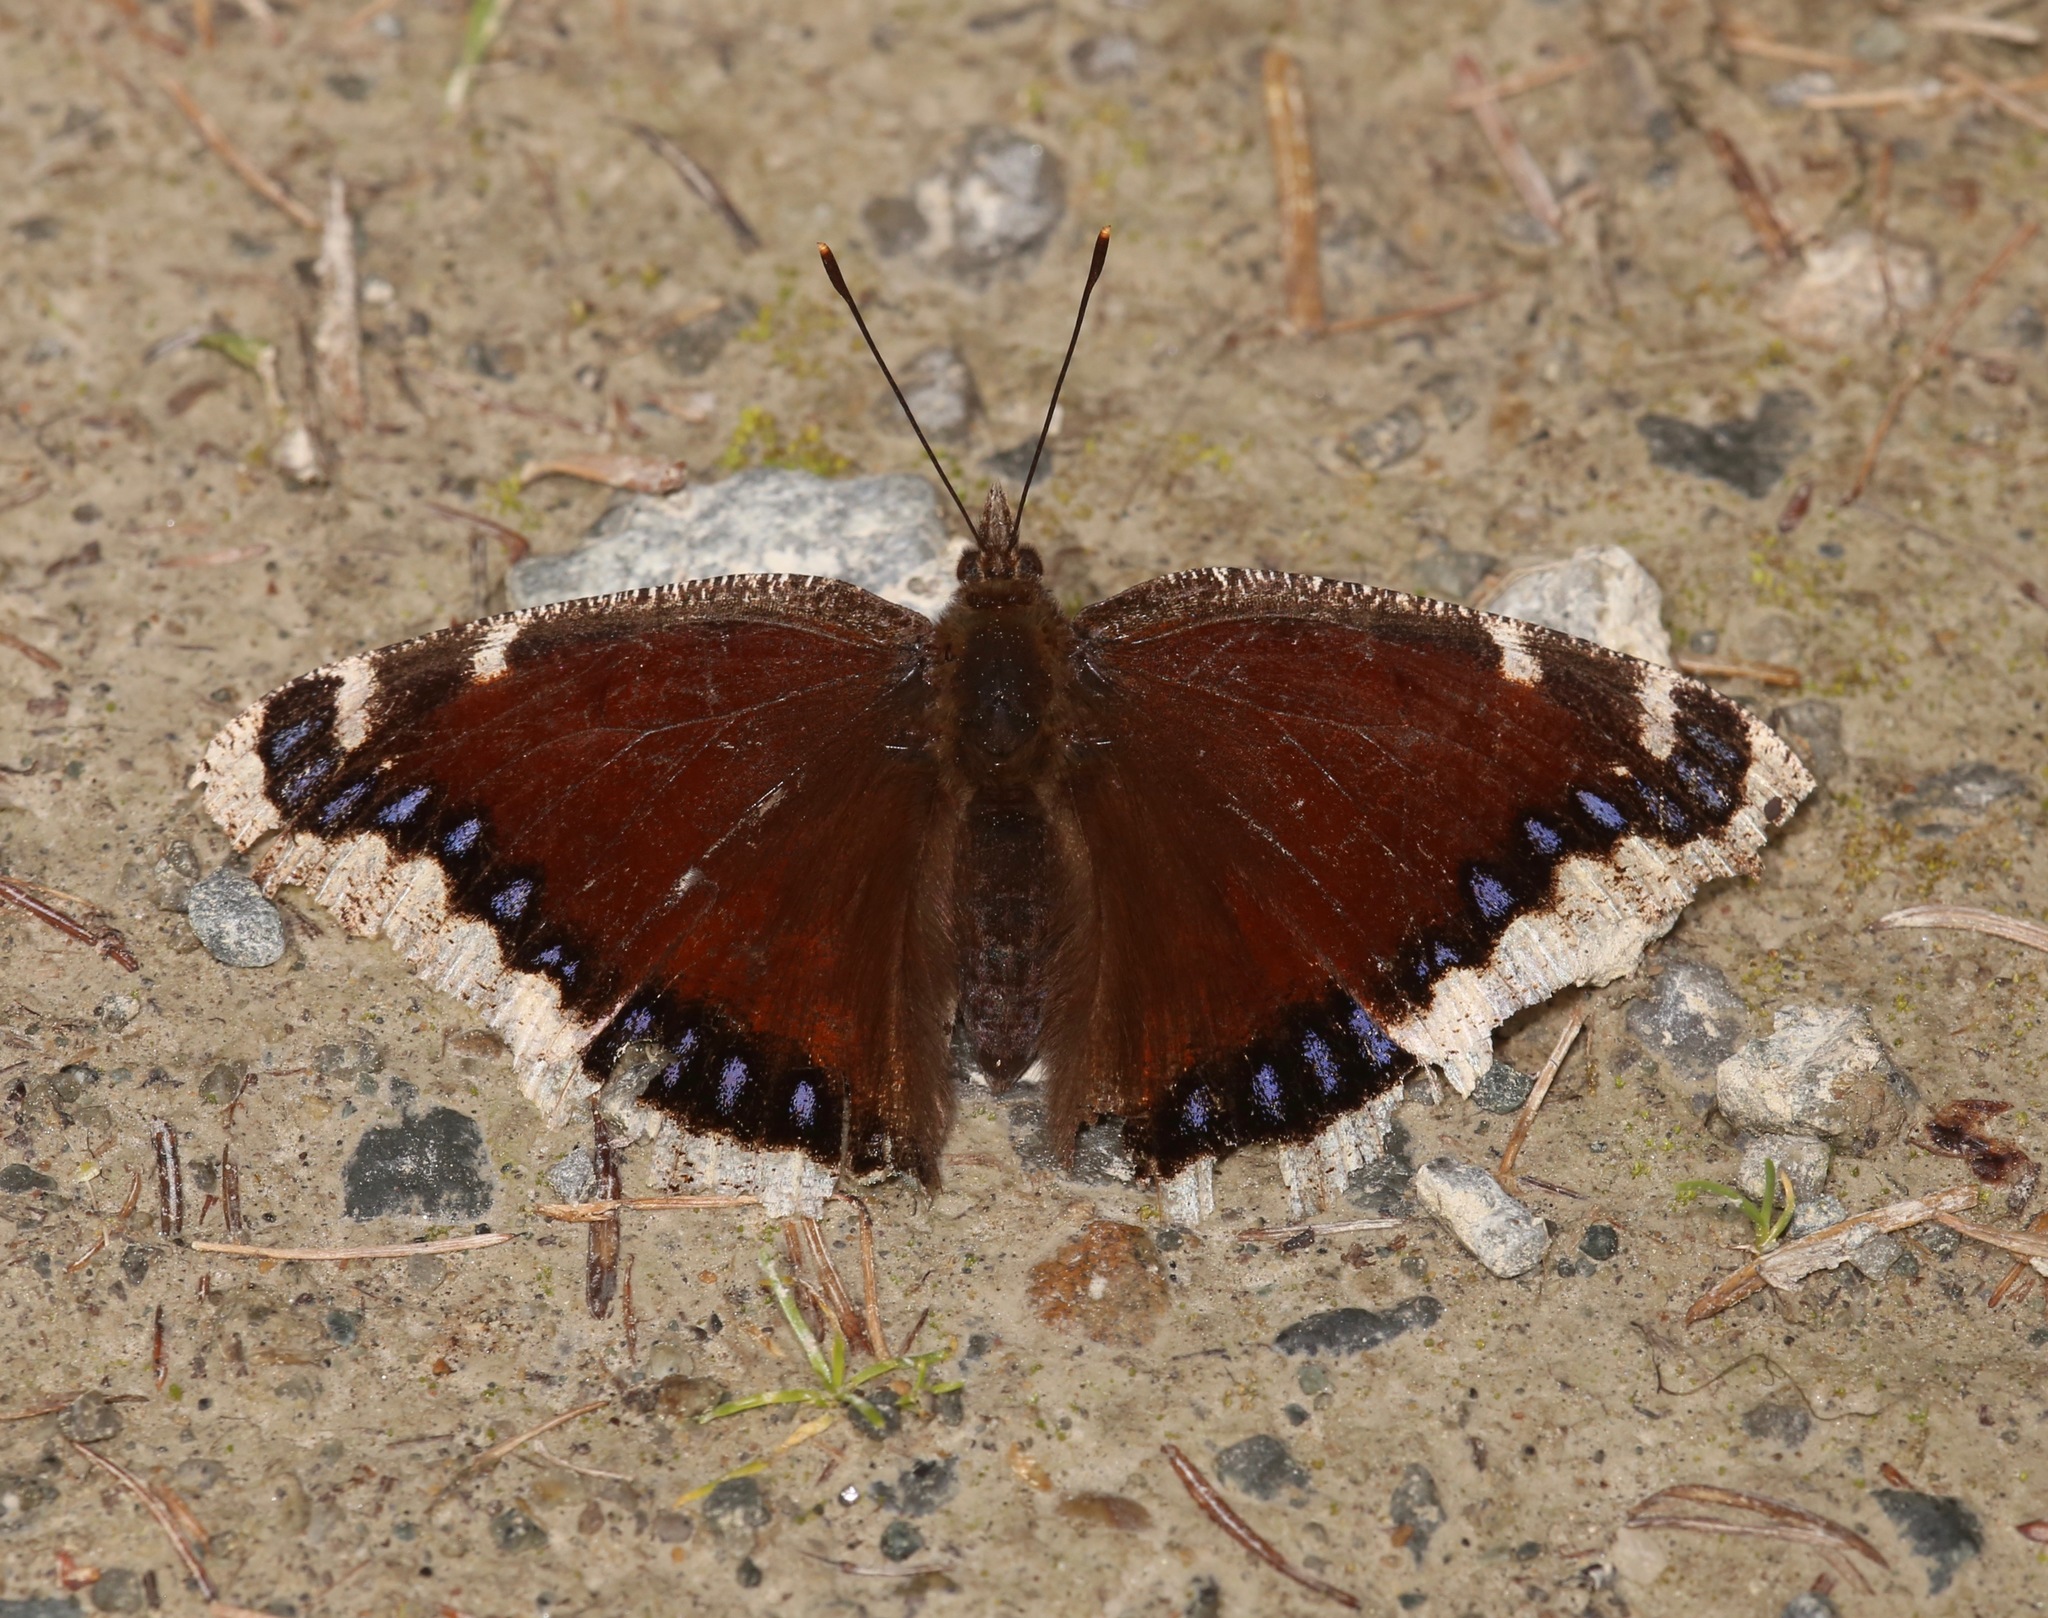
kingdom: Animalia
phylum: Arthropoda
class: Insecta
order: Lepidoptera
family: Nymphalidae
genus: Nymphalis
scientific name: Nymphalis antiopa
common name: Camberwell beauty
